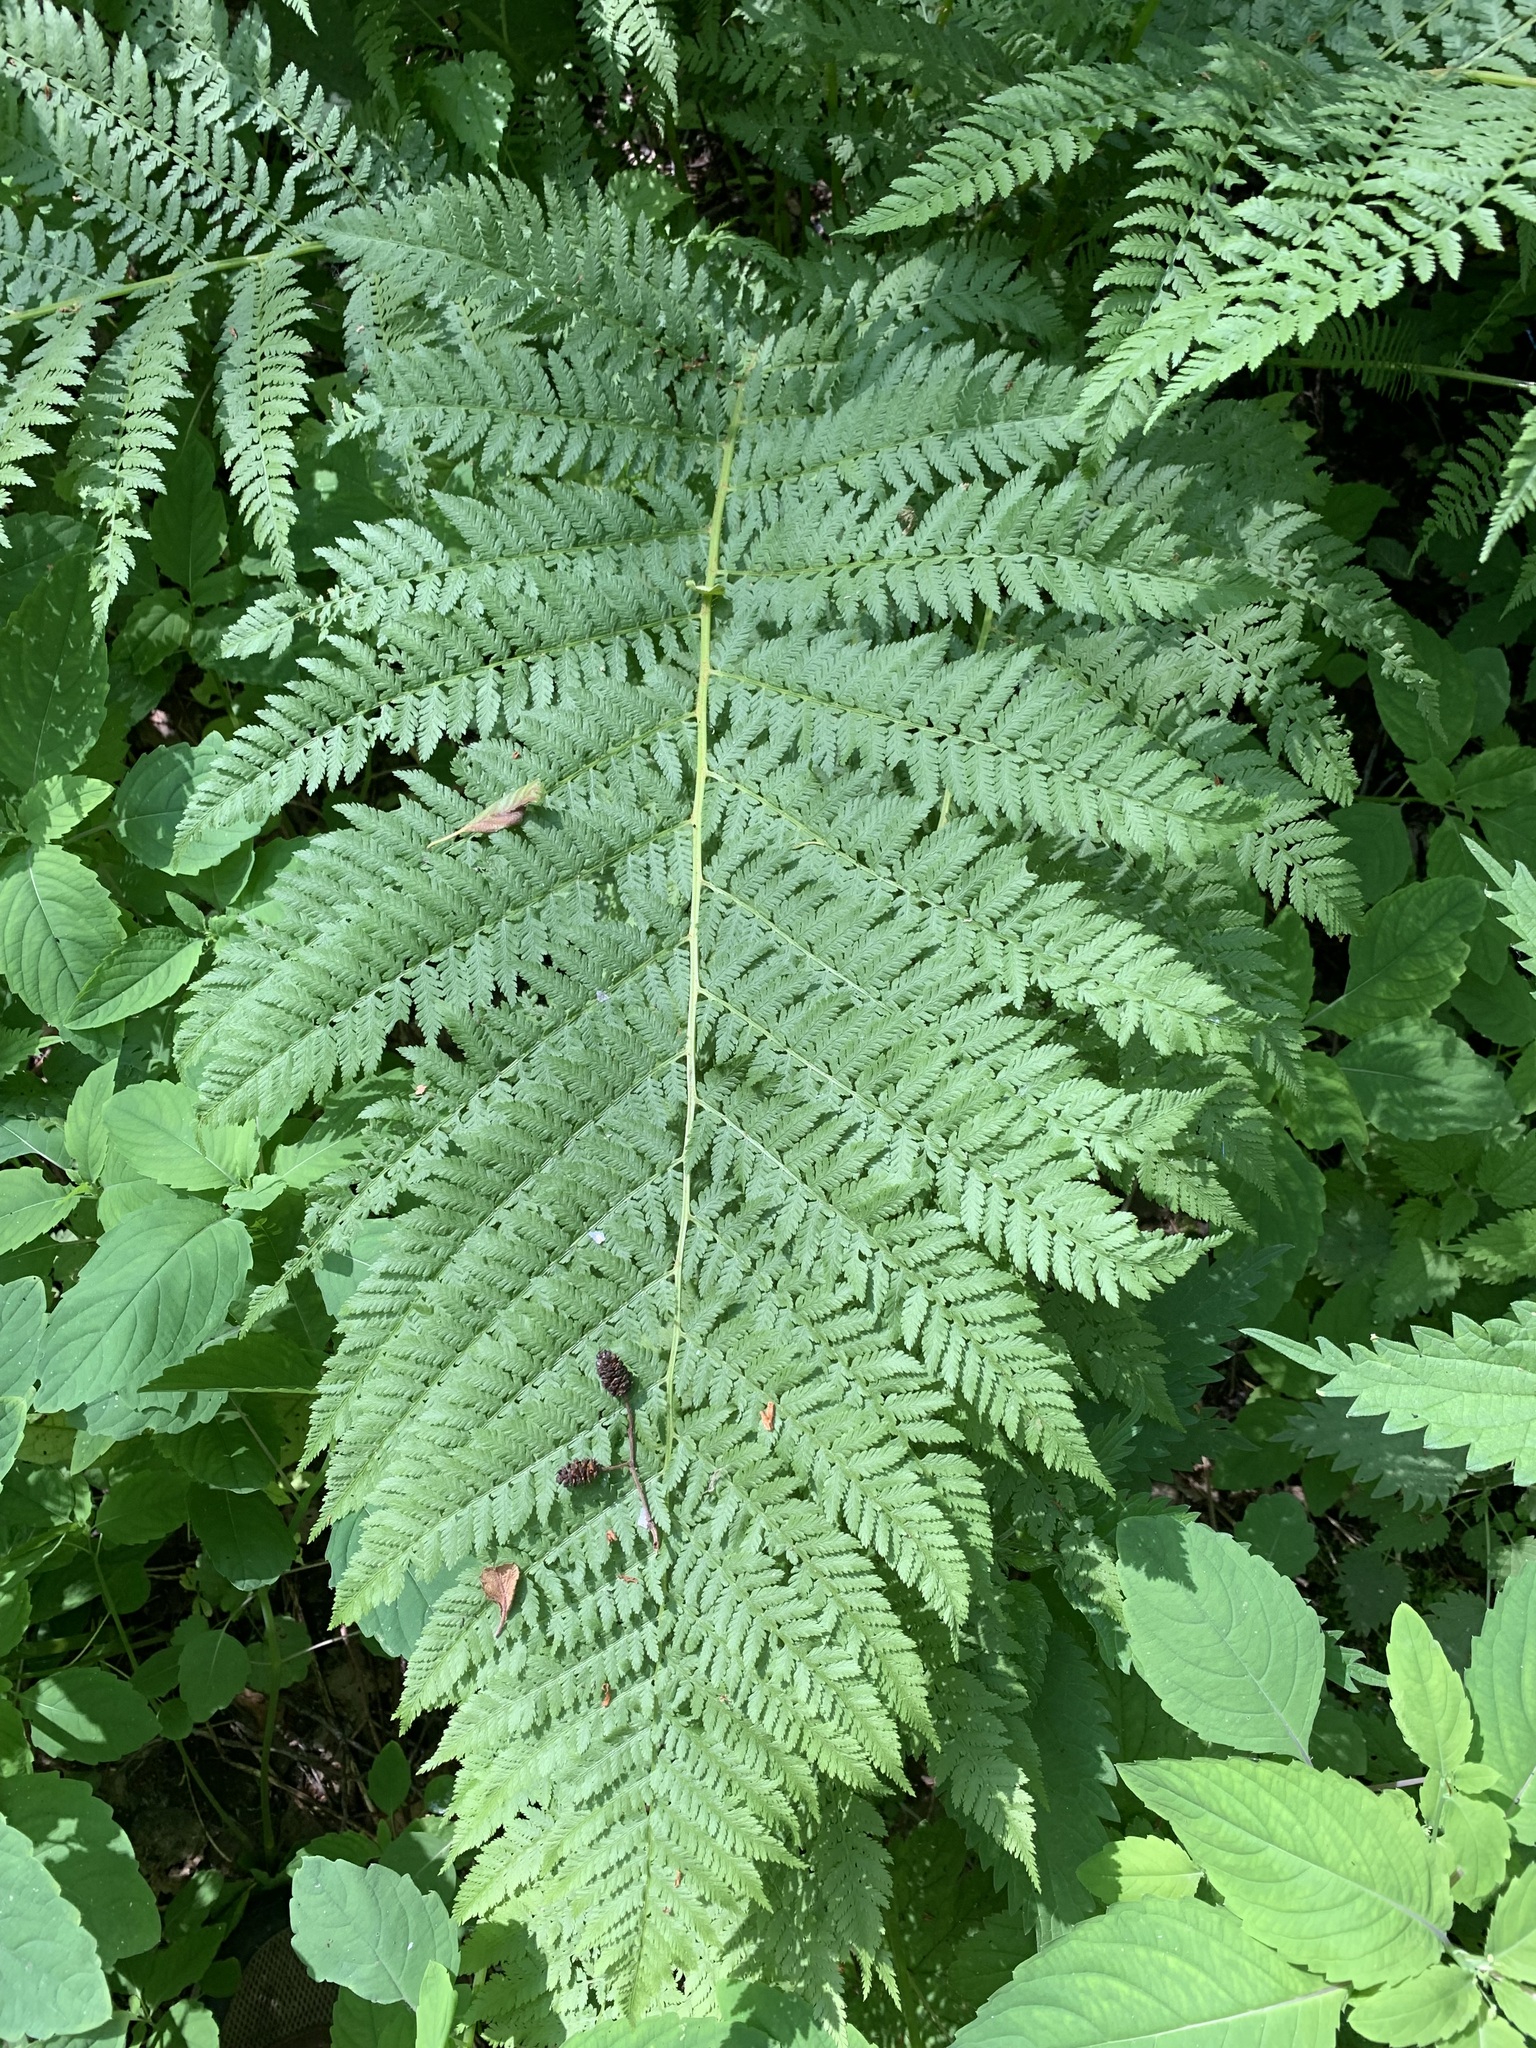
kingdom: Plantae
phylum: Tracheophyta
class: Polypodiopsida
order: Polypodiales
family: Athyriaceae
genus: Athyrium
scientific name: Athyrium filix-femina
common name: Lady fern
